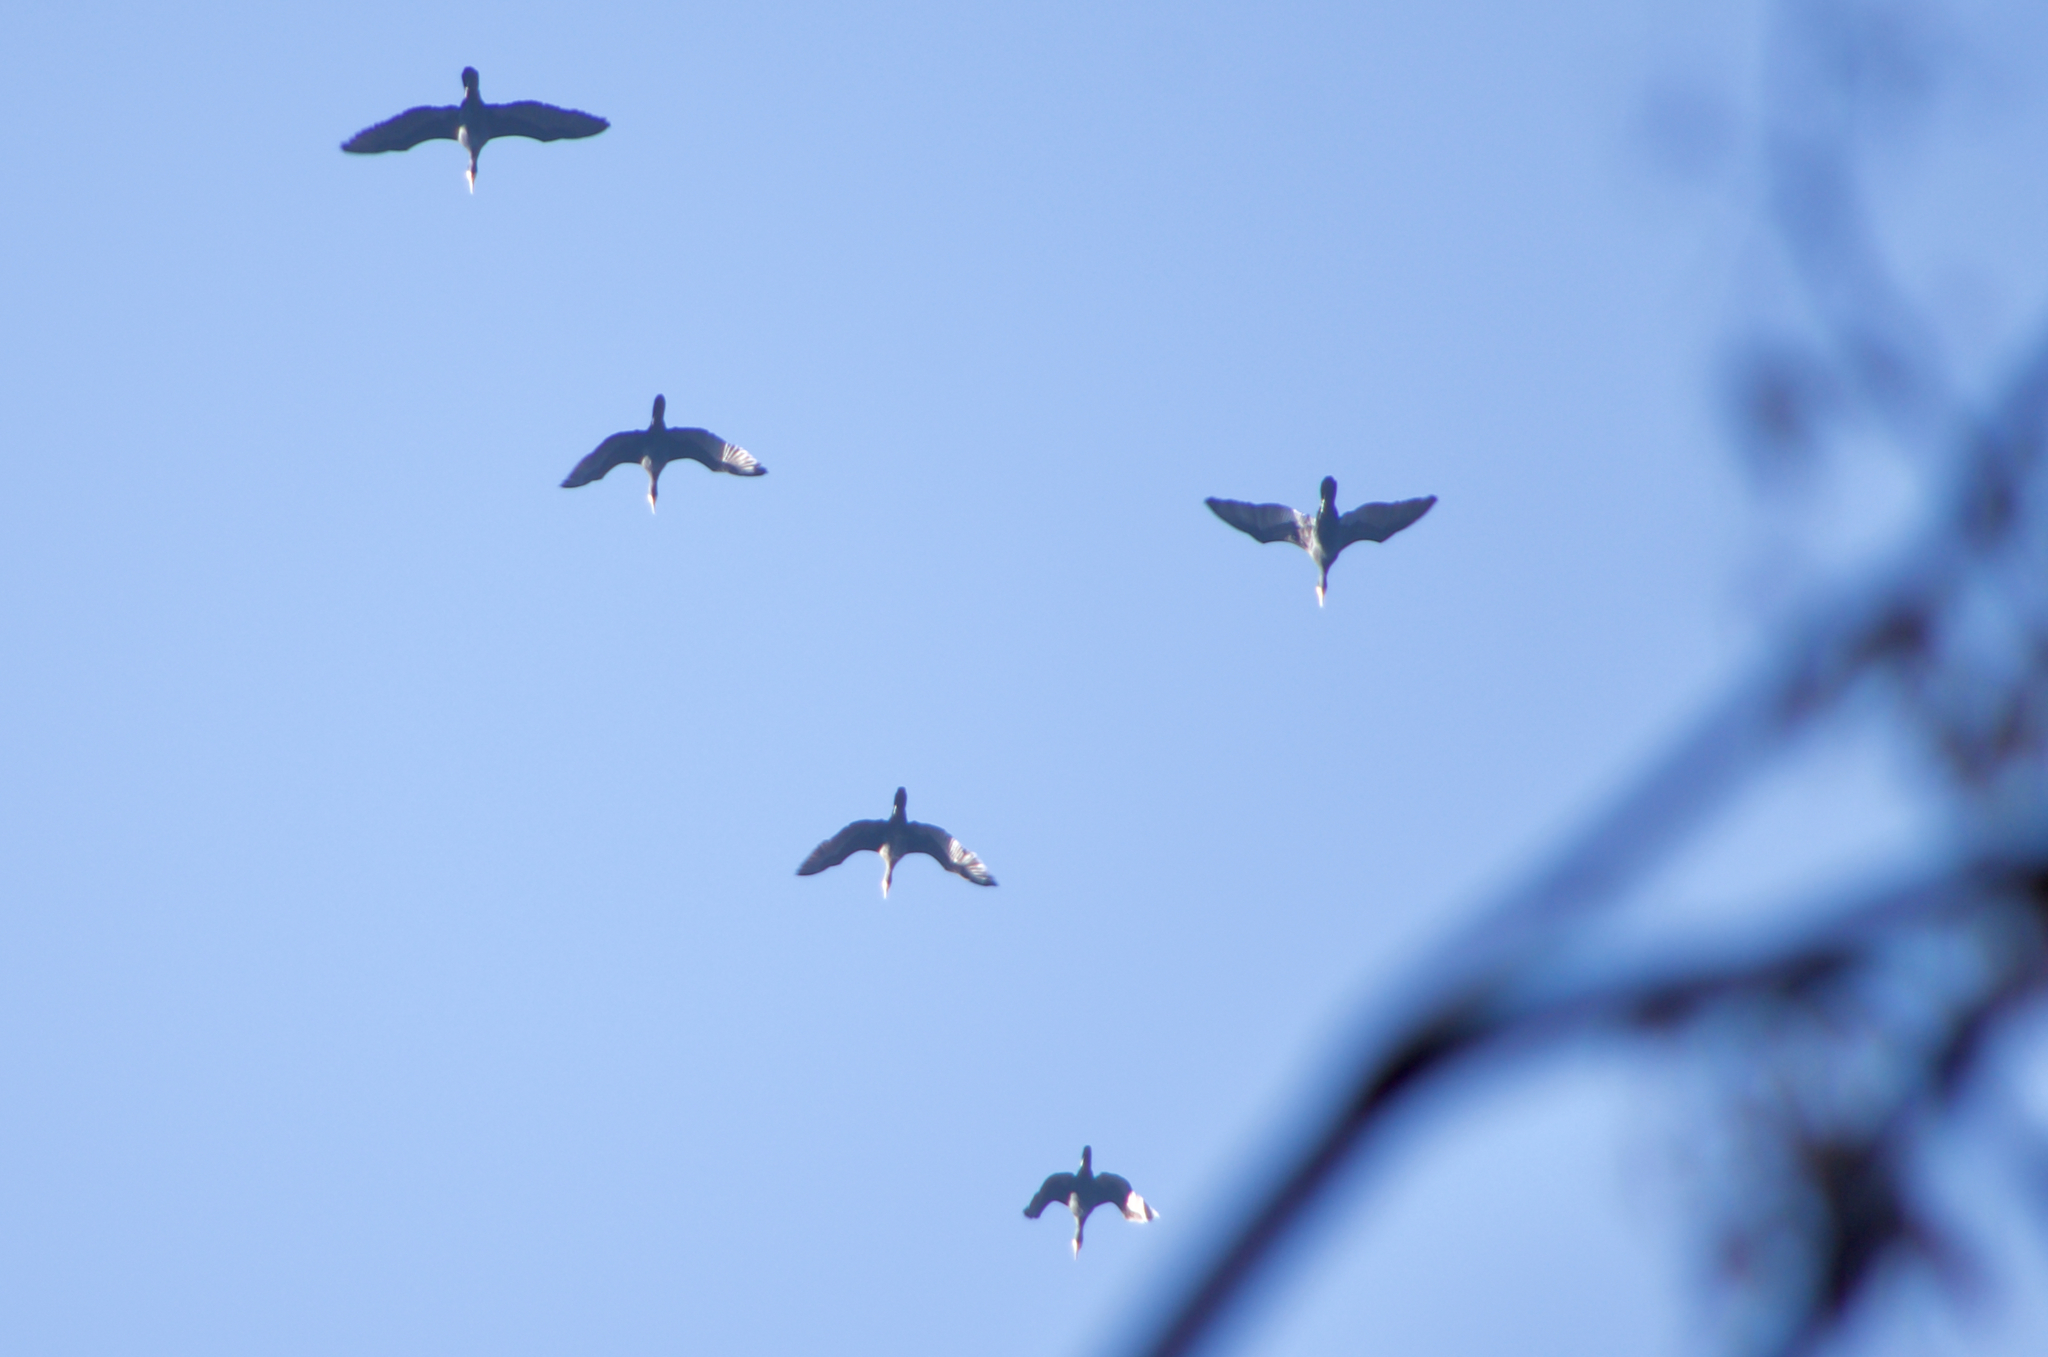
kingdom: Animalia
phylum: Chordata
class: Aves
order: Suliformes
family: Phalacrocoracidae
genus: Phalacrocorax
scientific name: Phalacrocorax carbo
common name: Great cormorant
